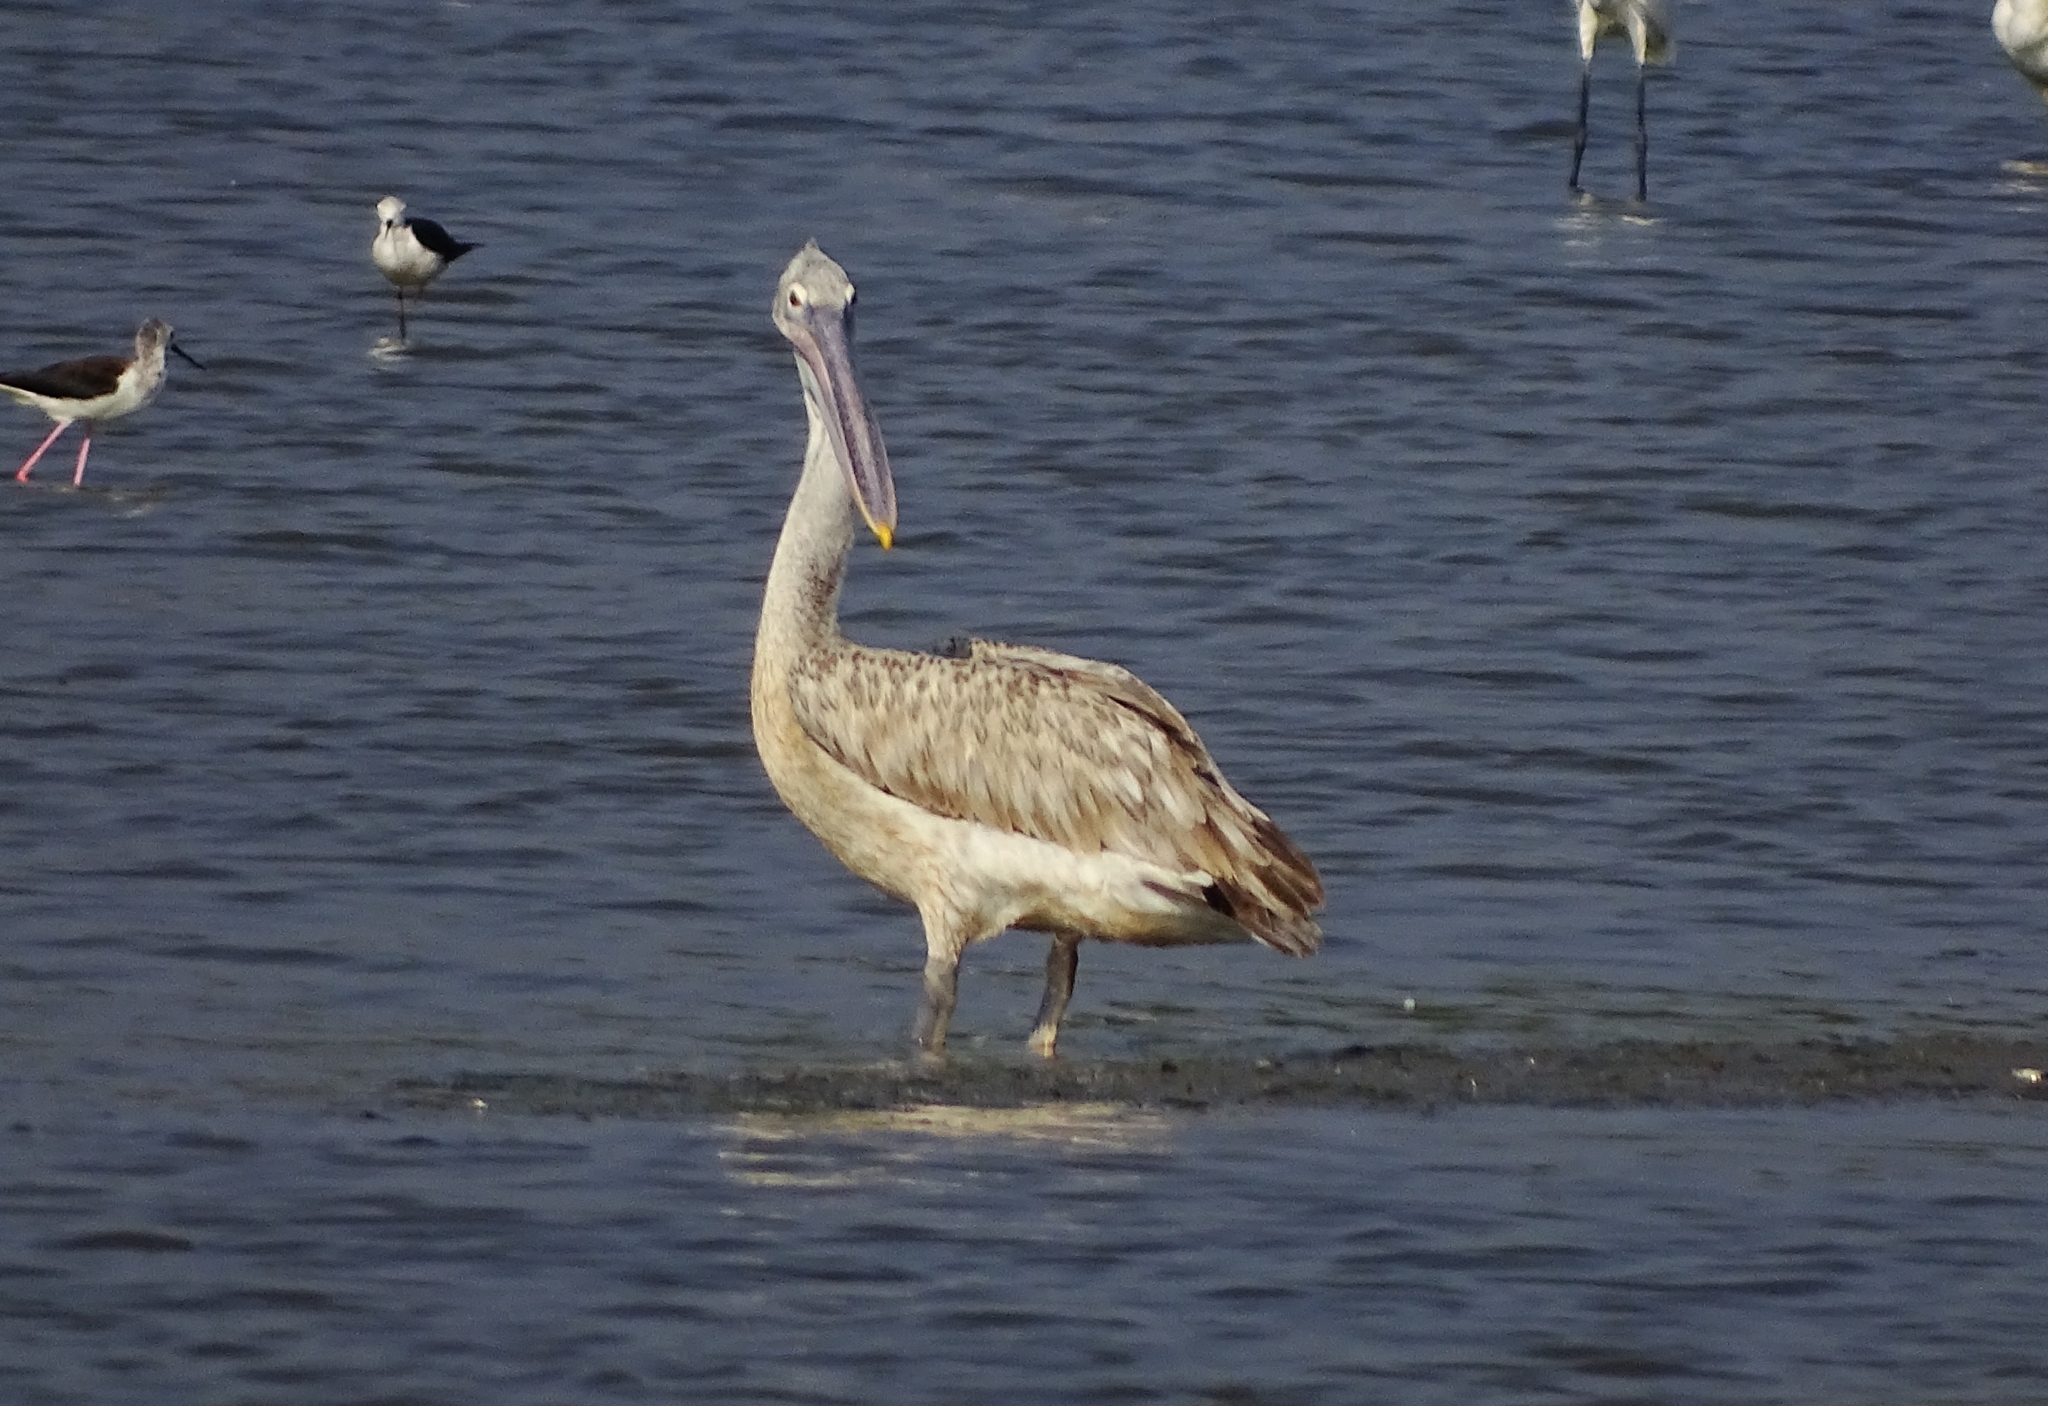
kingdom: Animalia
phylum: Chordata
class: Aves
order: Pelecaniformes
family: Pelecanidae
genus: Pelecanus
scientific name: Pelecanus philippensis
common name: Spot-billed pelican
